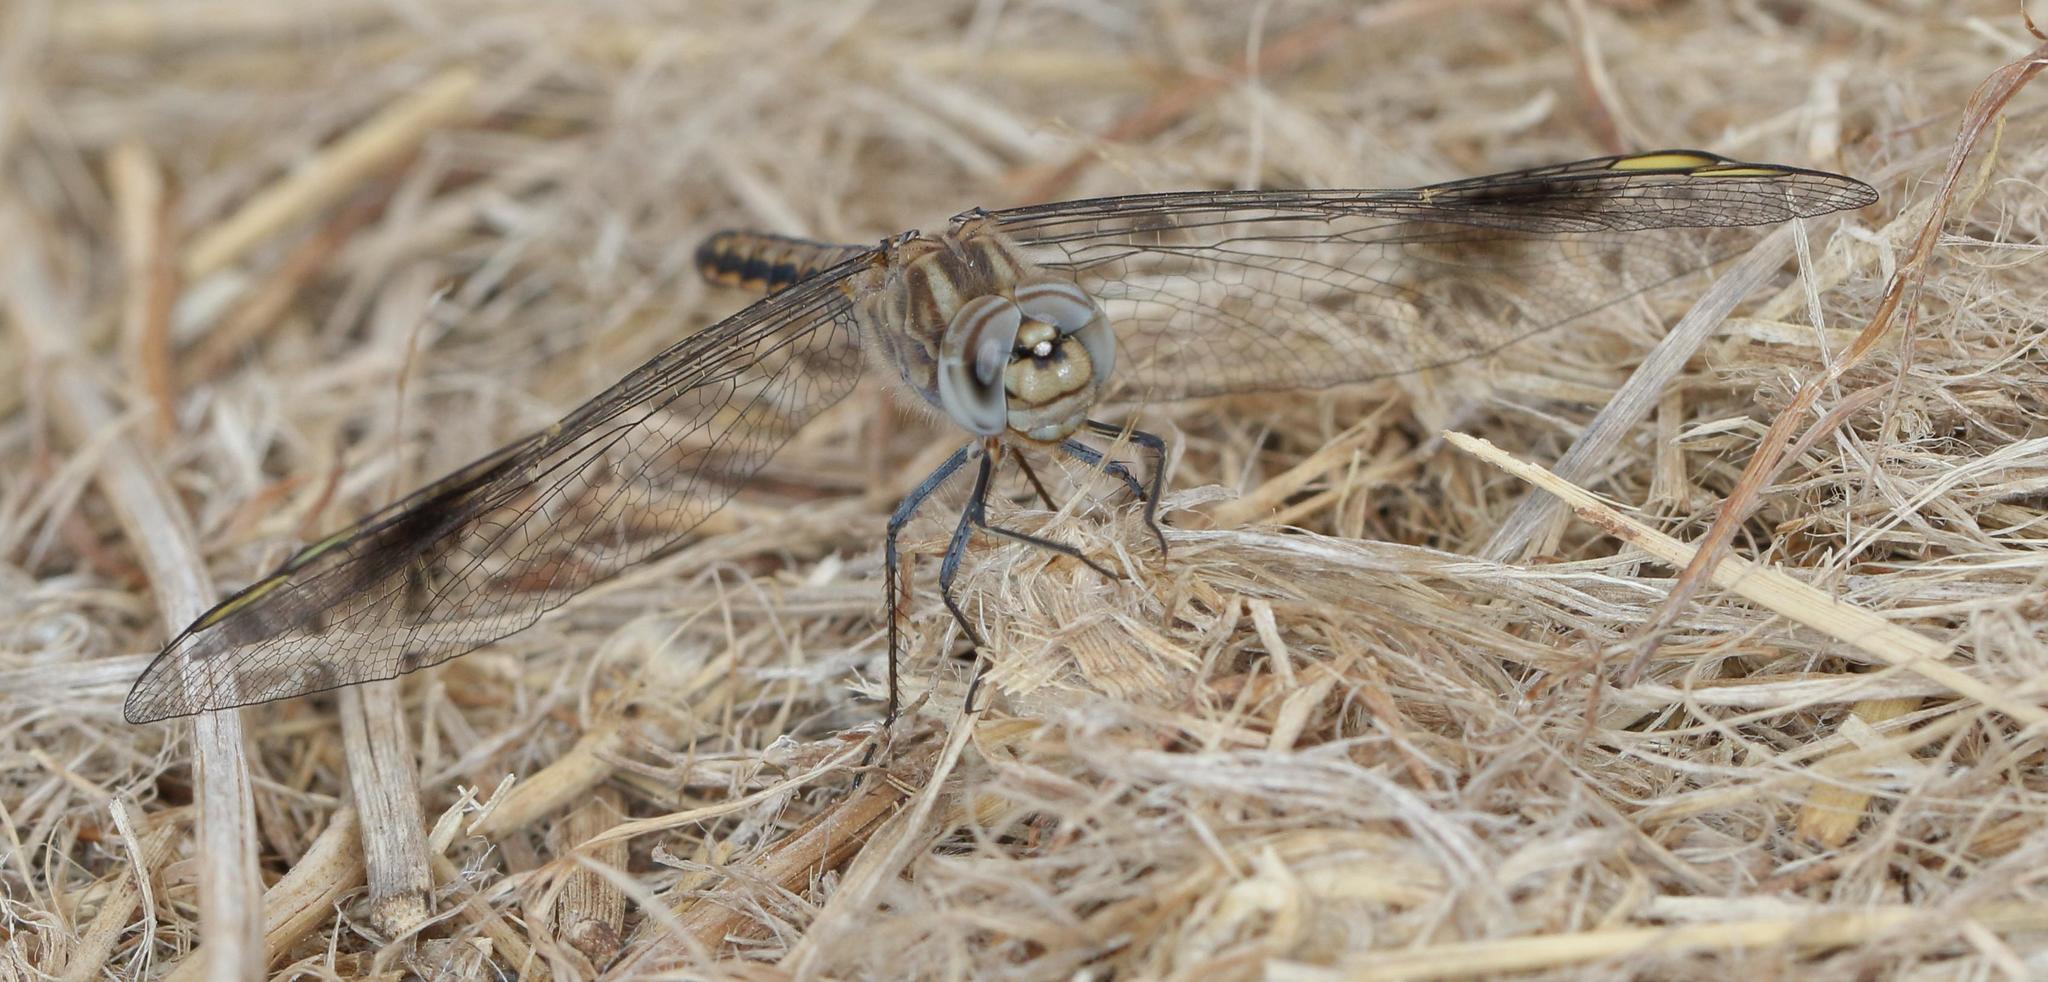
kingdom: Animalia
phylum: Arthropoda
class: Insecta
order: Odonata
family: Libellulidae
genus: Brachythemis
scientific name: Brachythemis leucosticta
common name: Banded groundling
